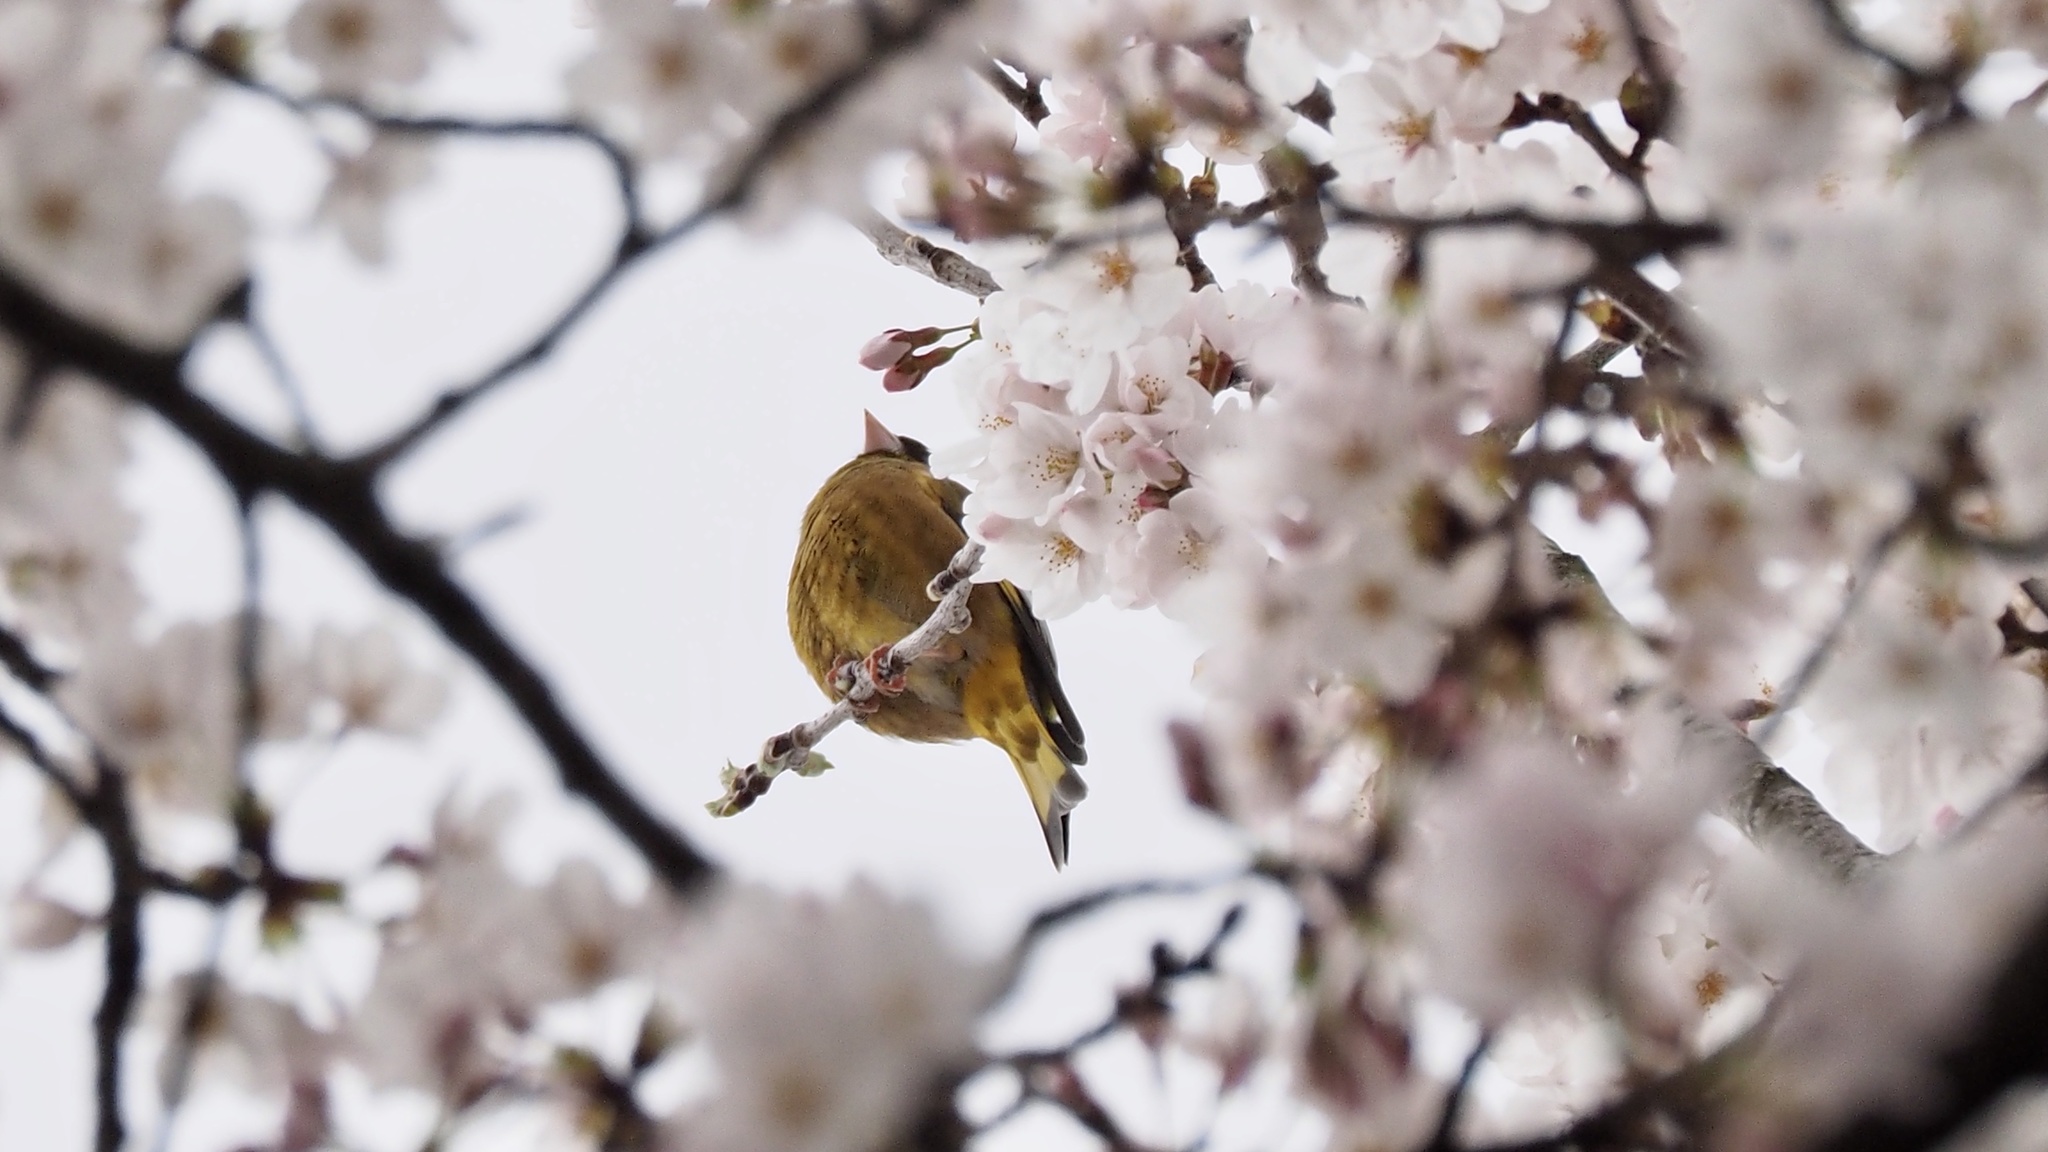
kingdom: Plantae
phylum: Tracheophyta
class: Liliopsida
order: Poales
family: Poaceae
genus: Chloris
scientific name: Chloris sinica
